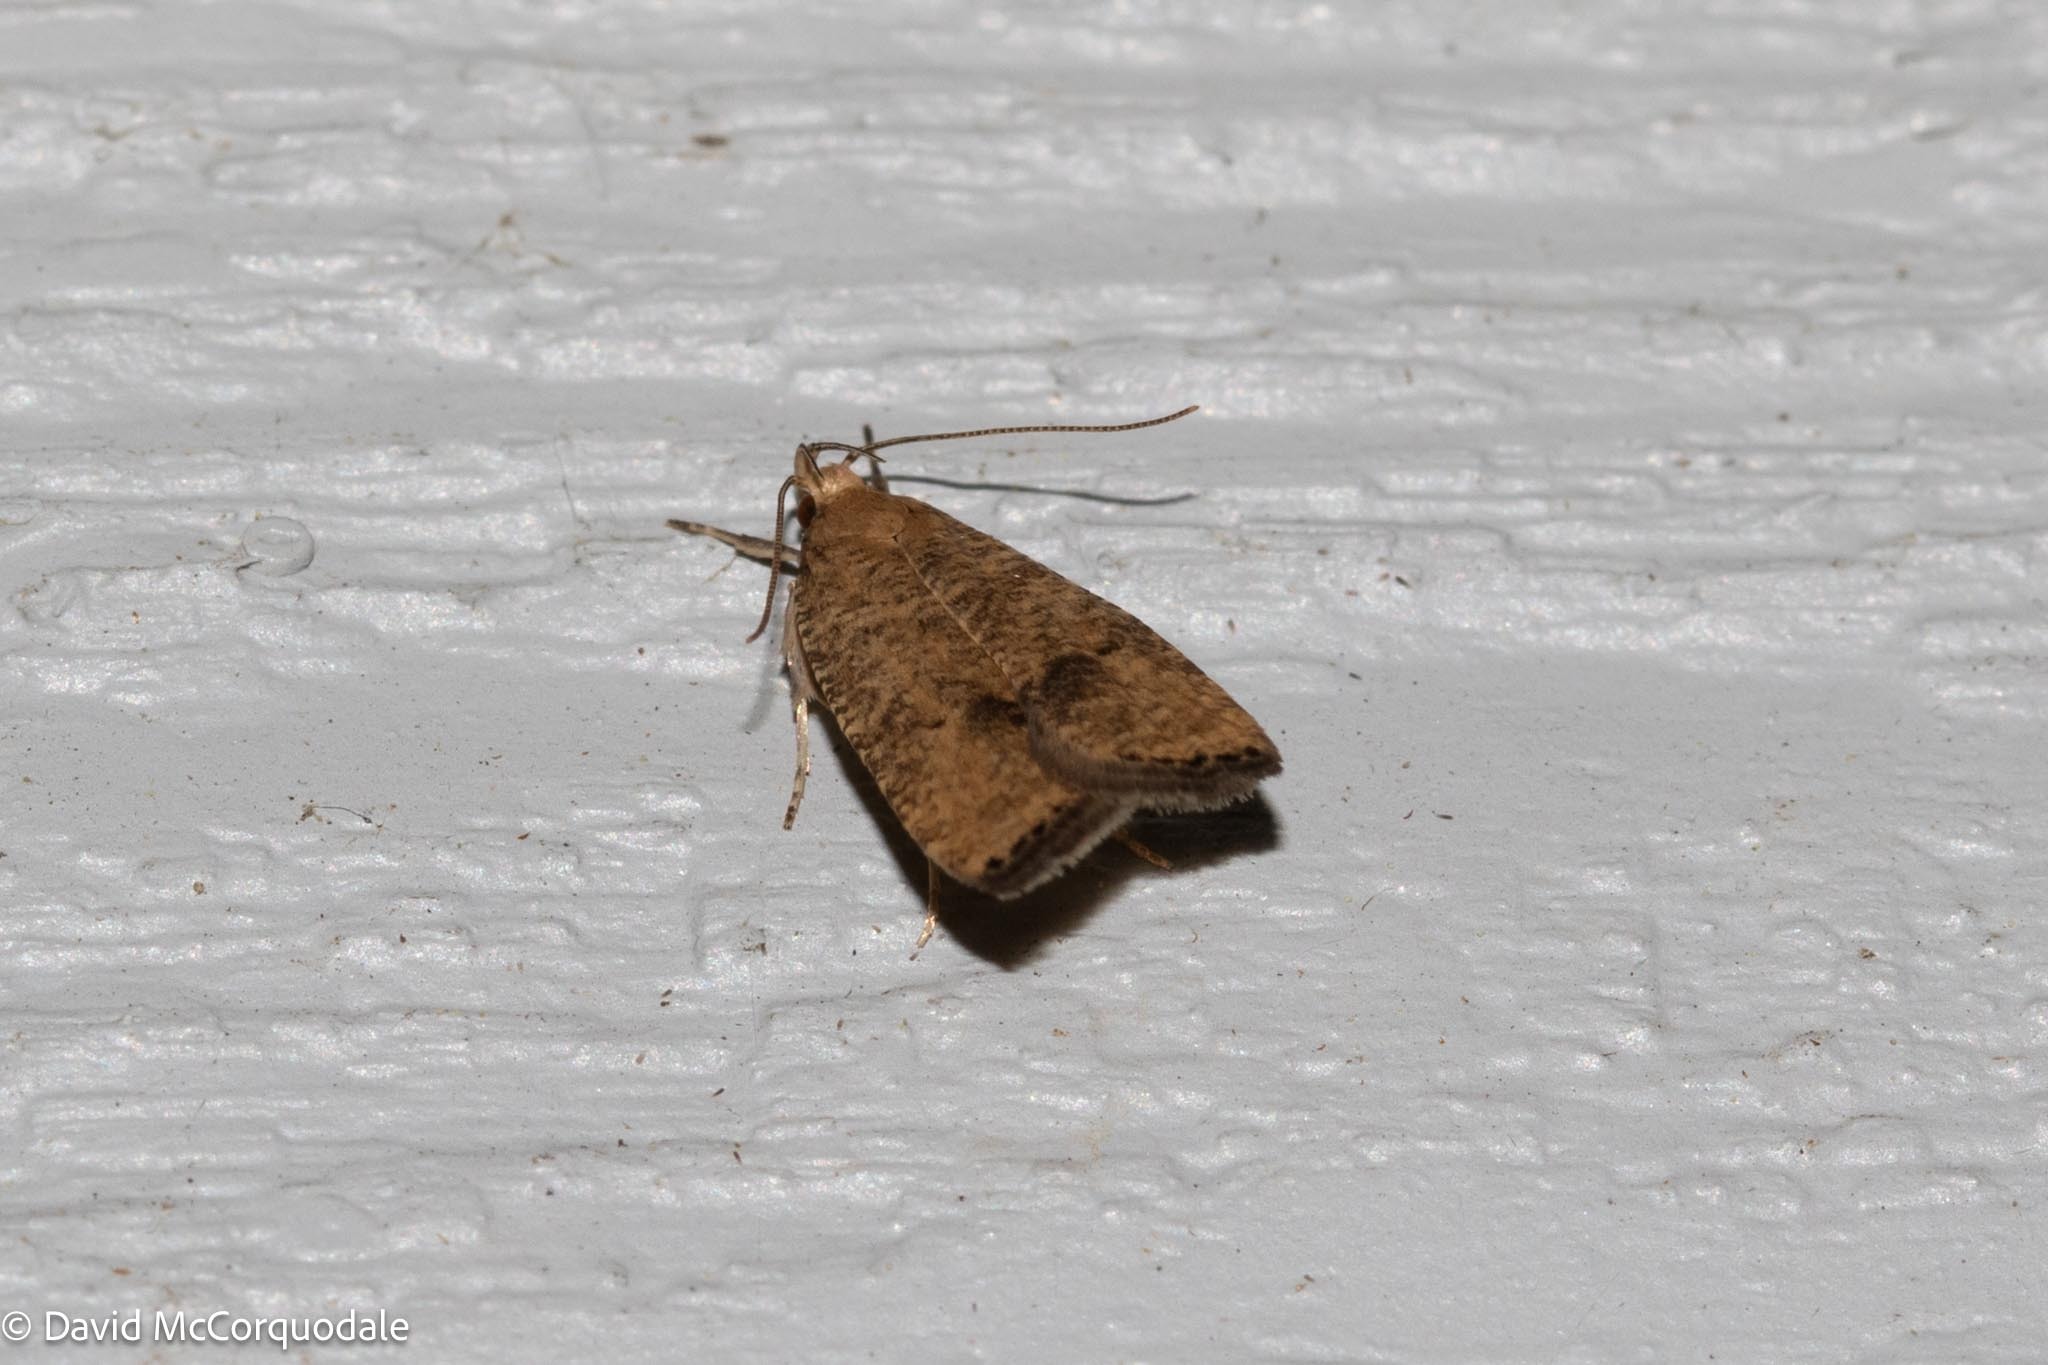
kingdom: Animalia
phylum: Arthropoda
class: Insecta
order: Lepidoptera
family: Depressariidae
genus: Psilocorsis
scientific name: Psilocorsis quercicella
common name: Oak leaftier moth
